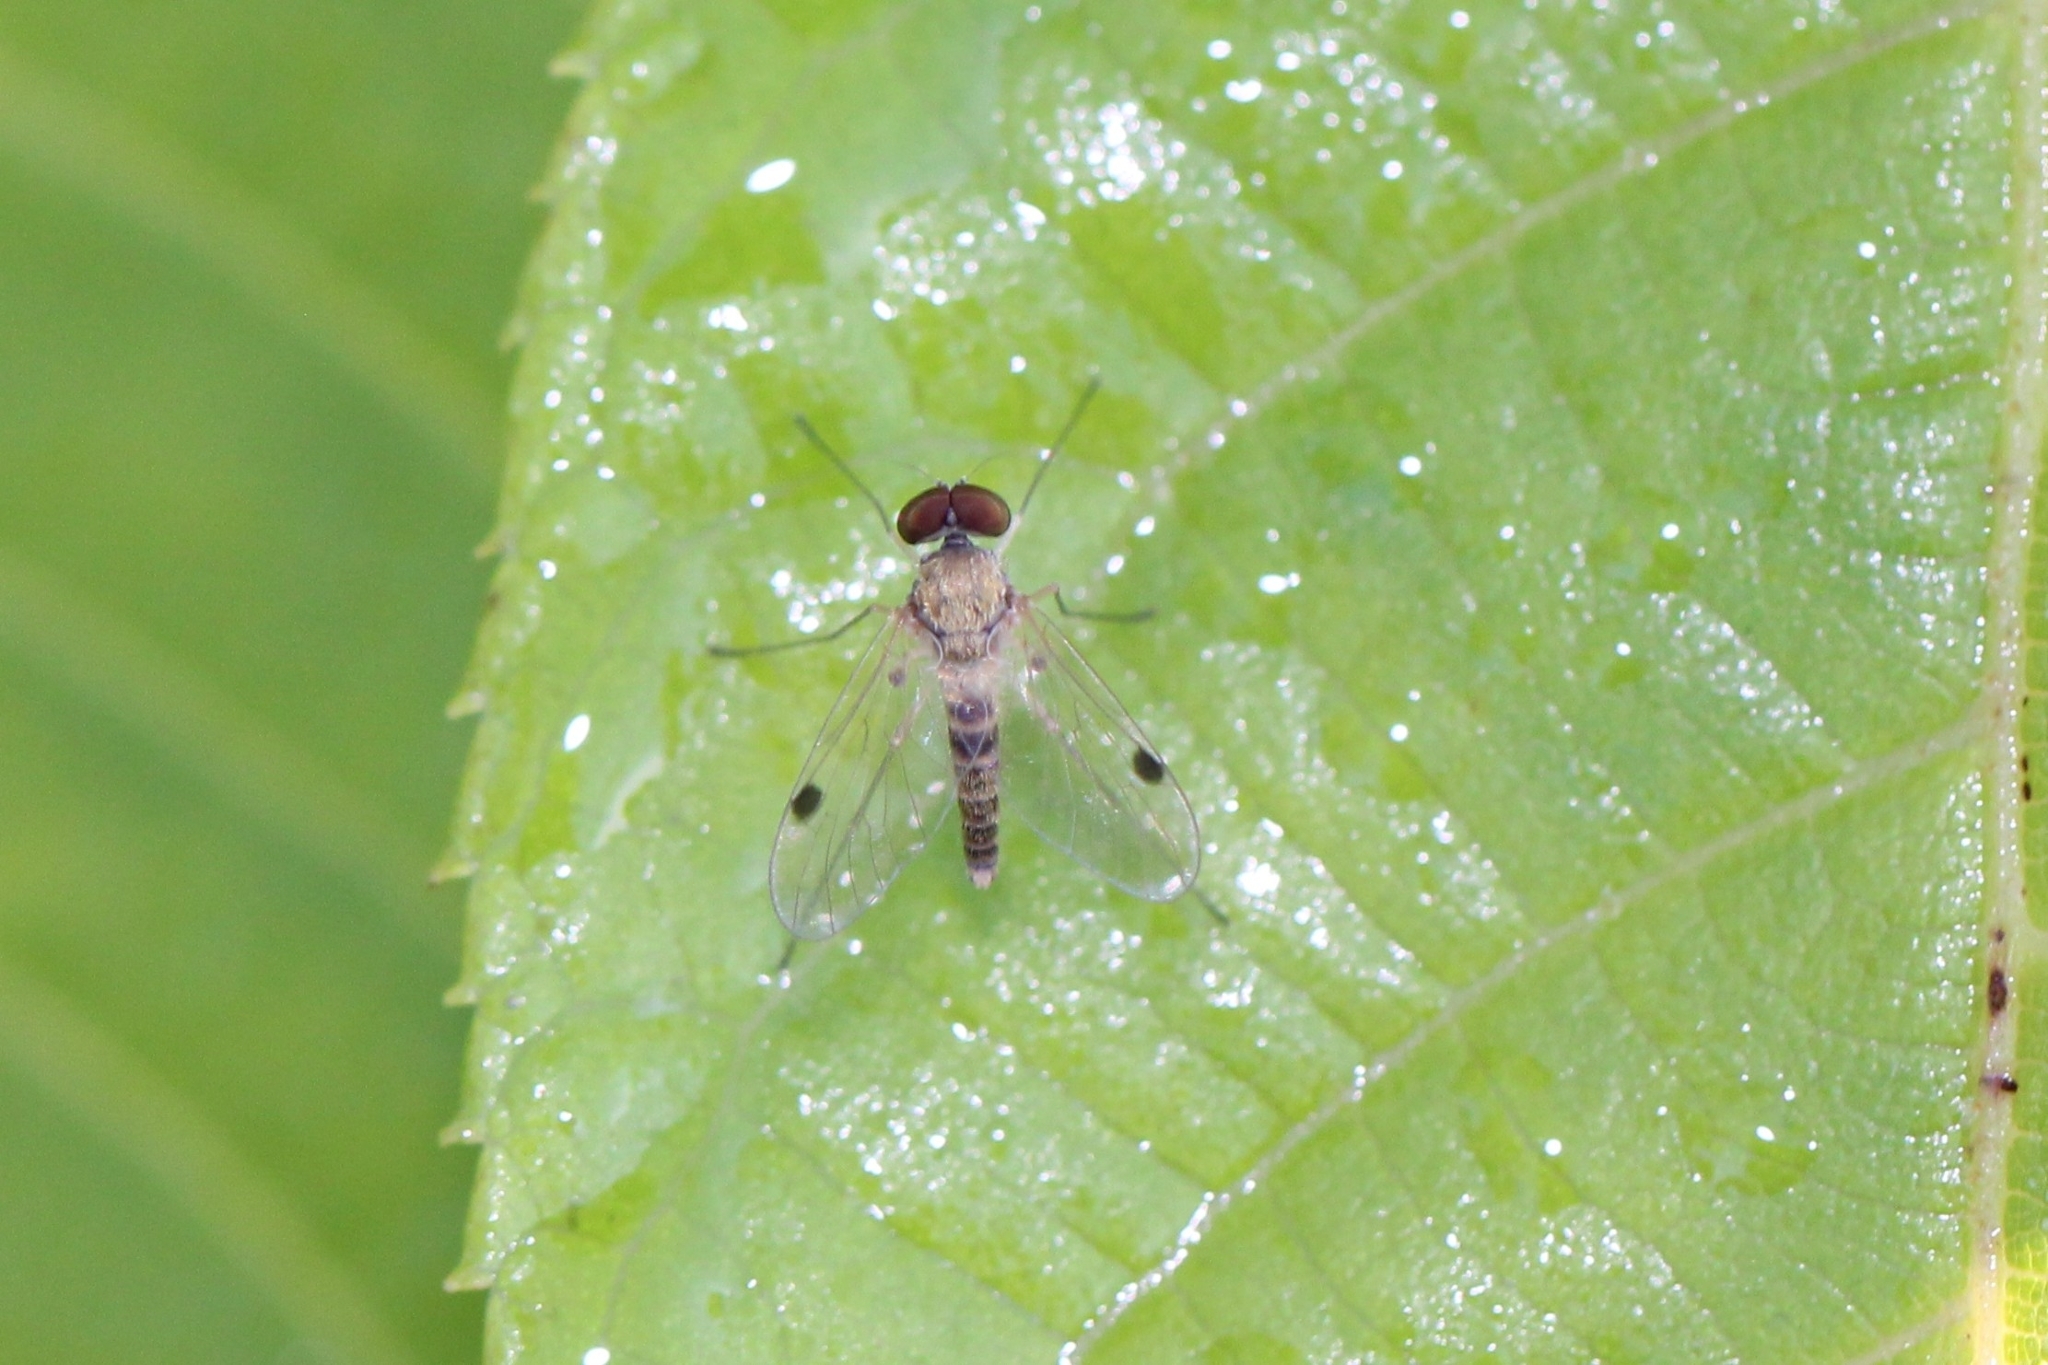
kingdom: Animalia
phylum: Arthropoda
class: Insecta
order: Diptera
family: Rhagionidae
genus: Chrysopilus
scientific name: Chrysopilus modestus
